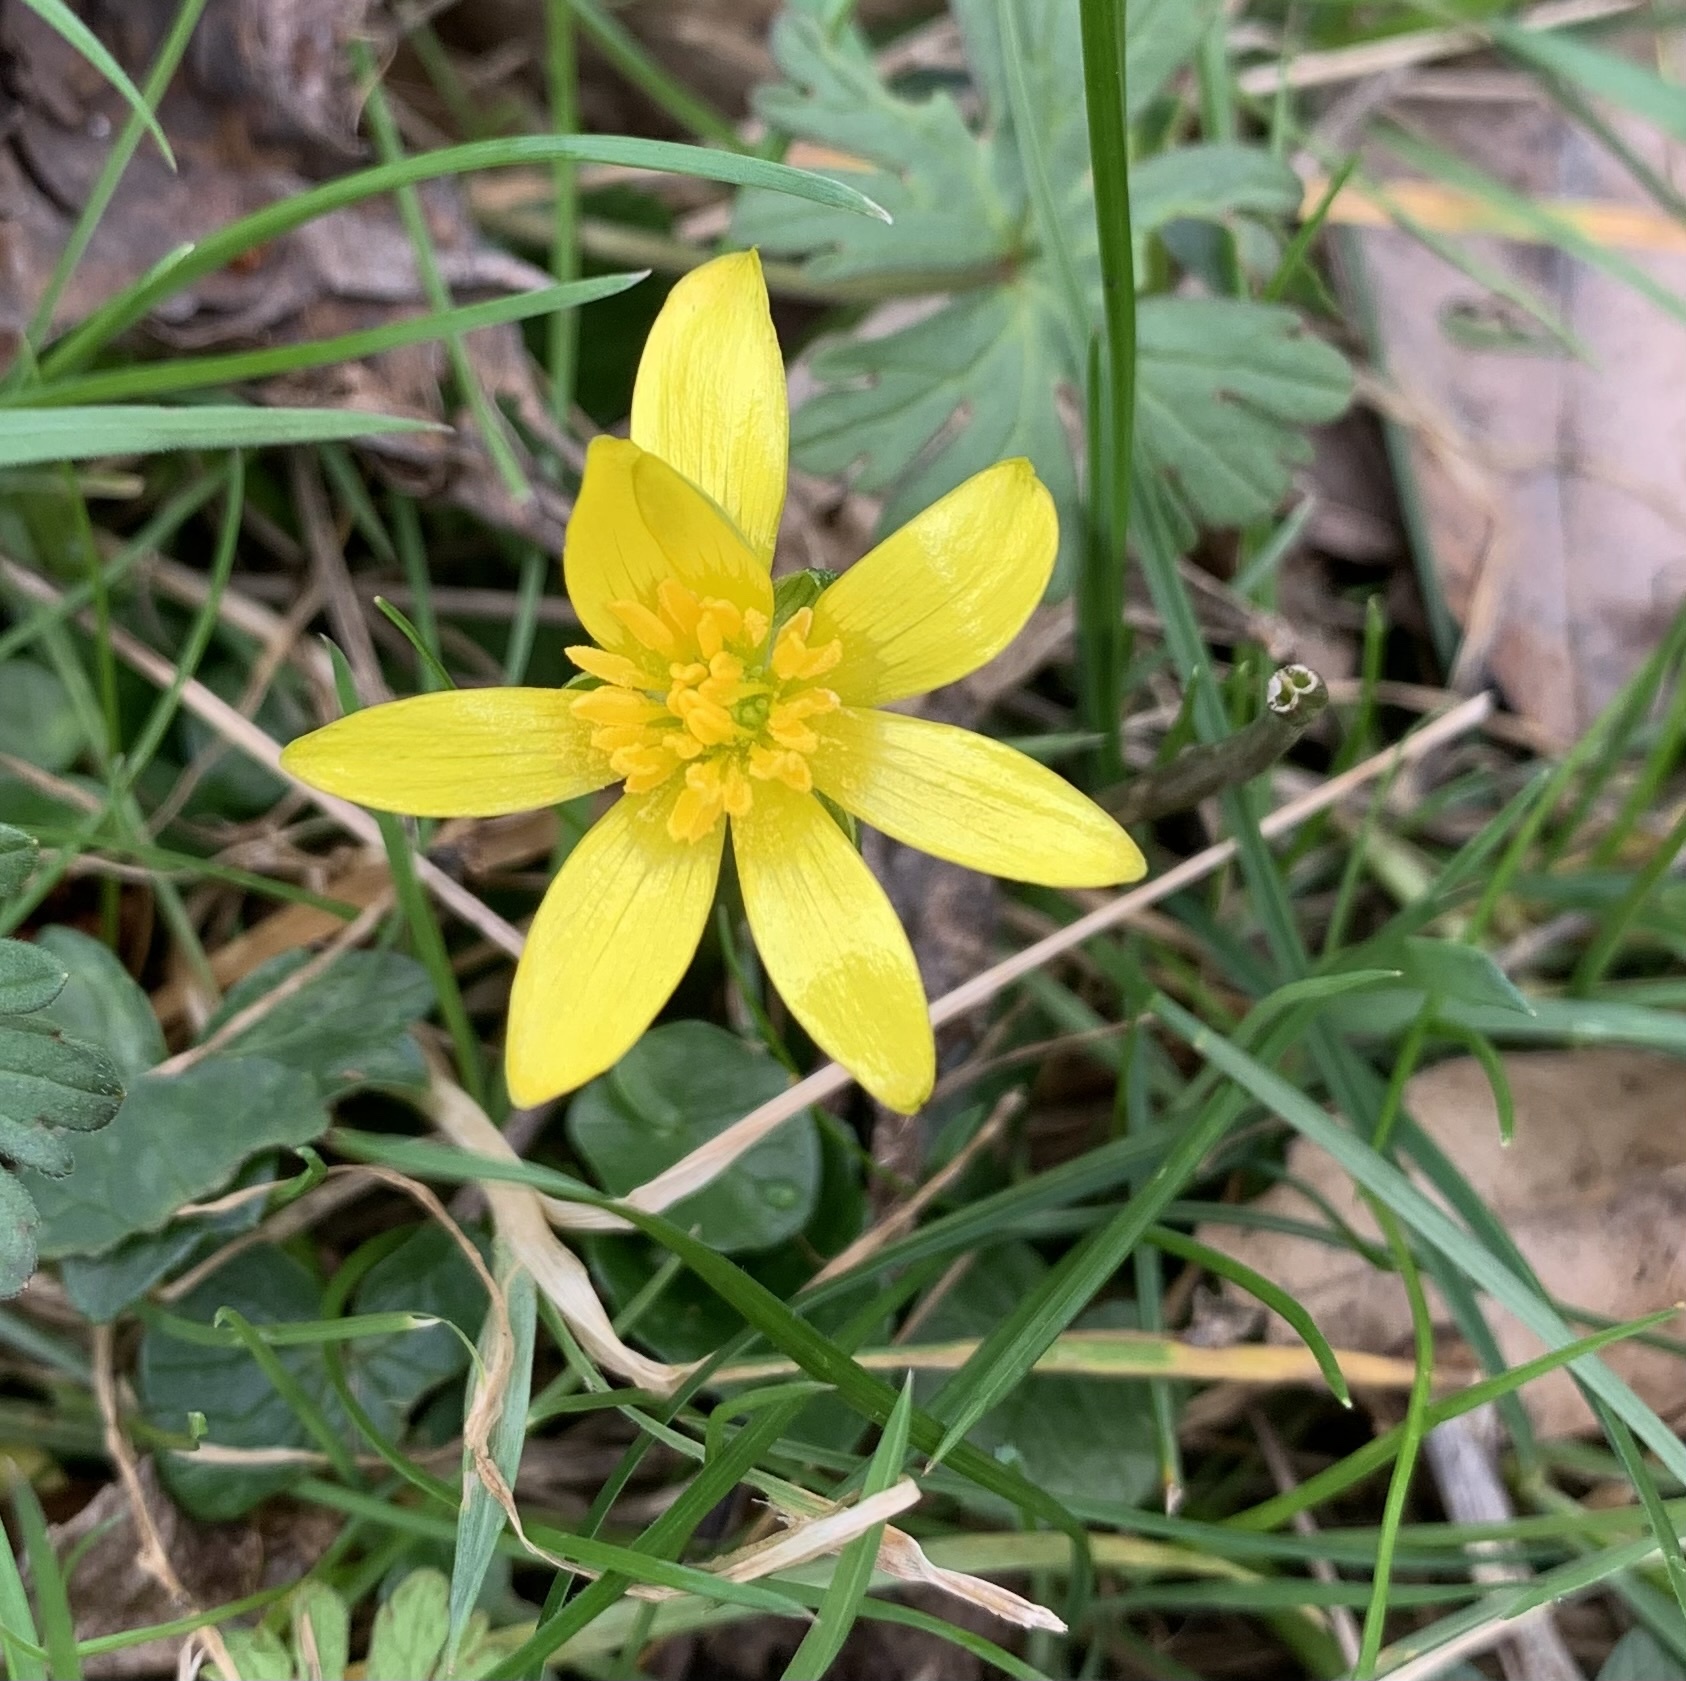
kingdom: Plantae
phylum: Tracheophyta
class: Magnoliopsida
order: Ranunculales
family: Ranunculaceae
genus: Ficaria
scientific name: Ficaria verna
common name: Lesser celandine
